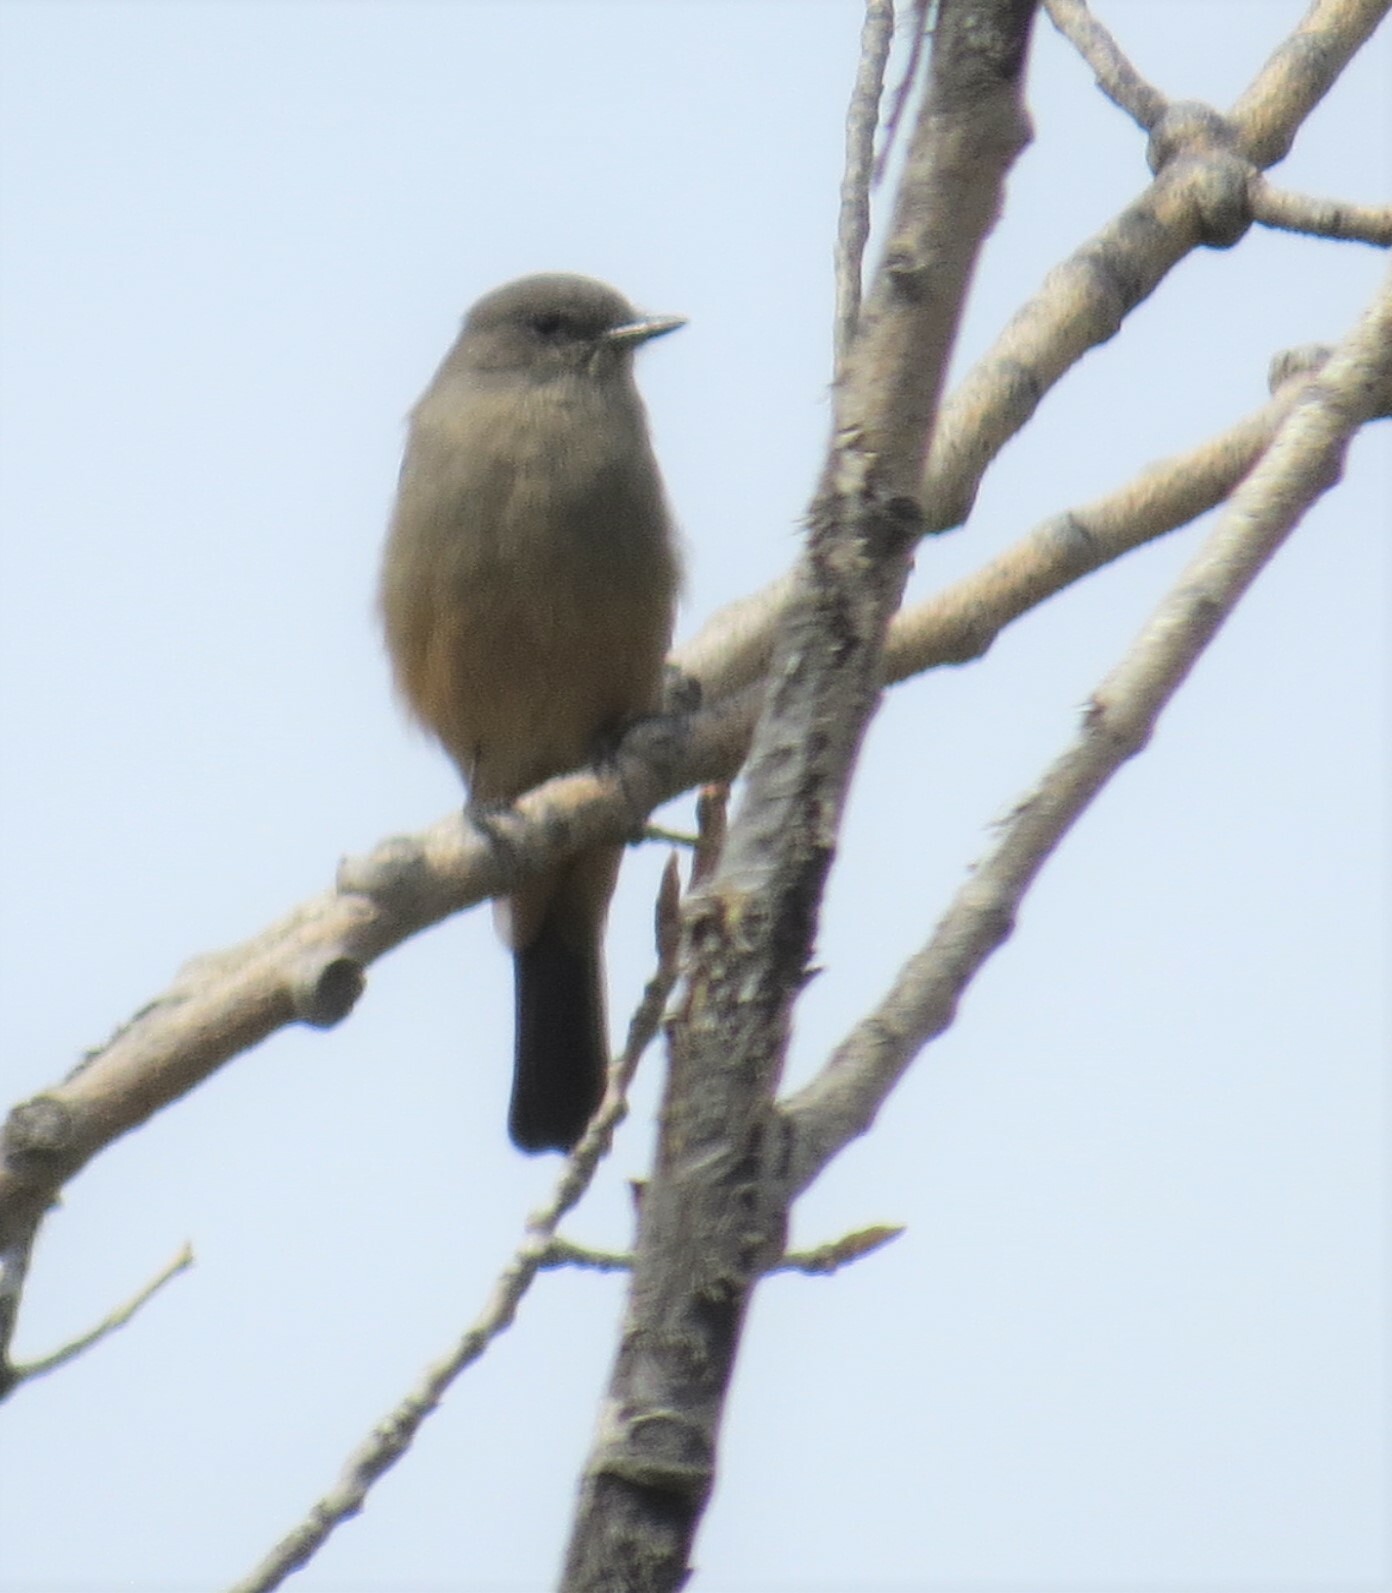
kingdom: Animalia
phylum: Chordata
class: Aves
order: Passeriformes
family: Tyrannidae
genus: Sayornis
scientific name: Sayornis saya
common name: Say's phoebe
